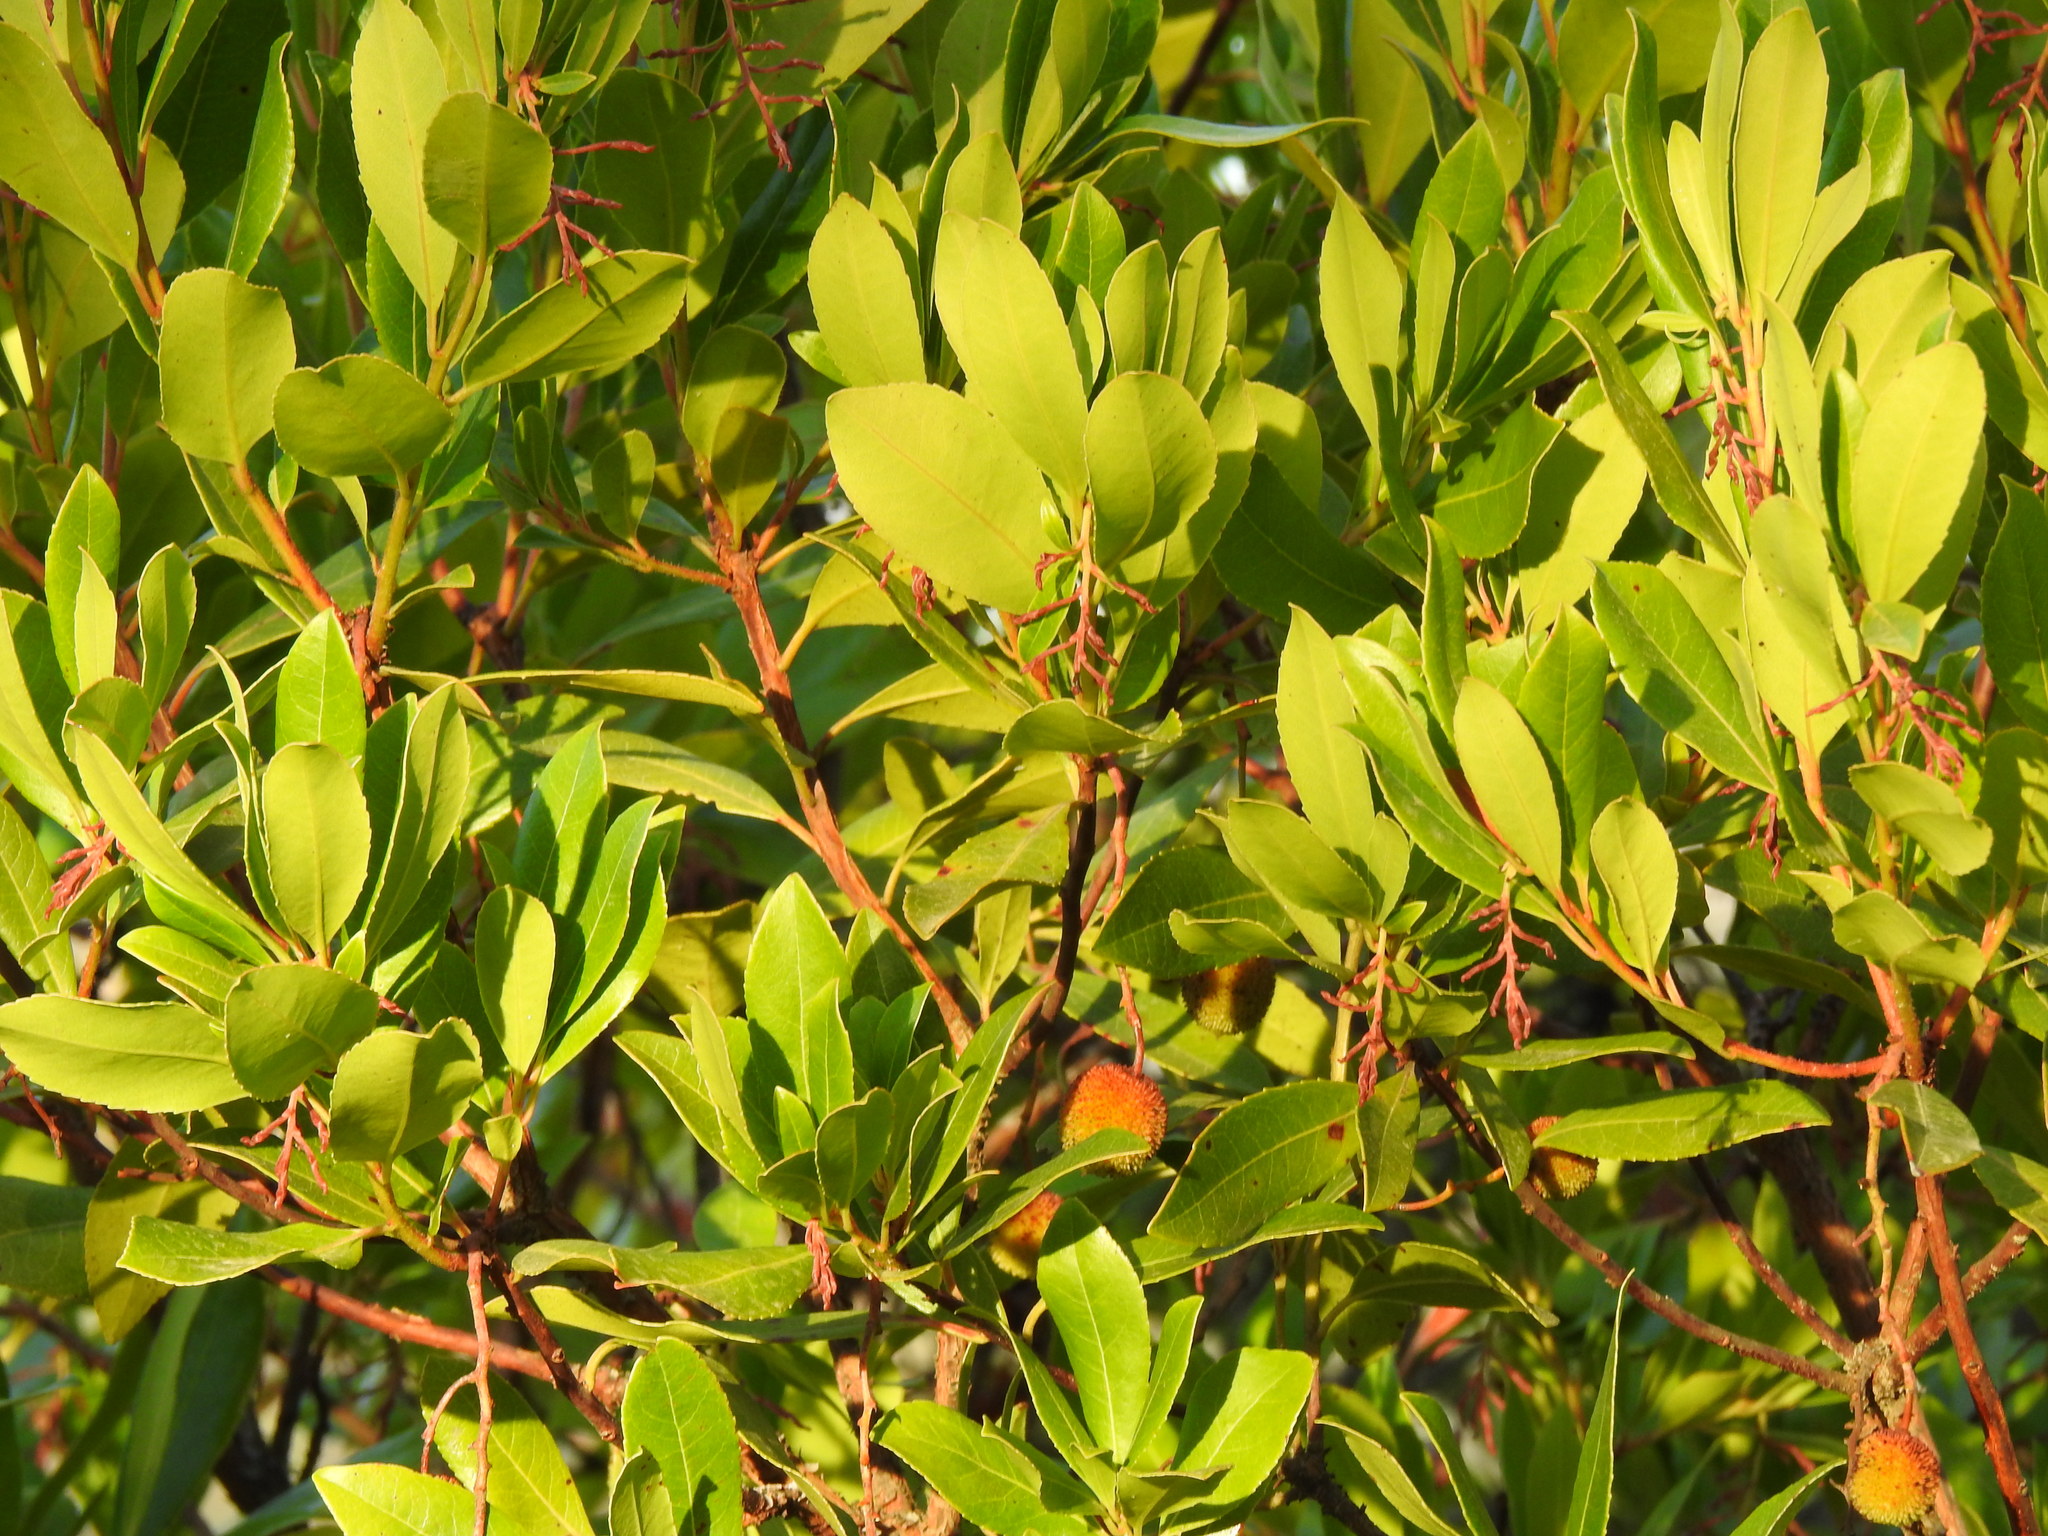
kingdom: Plantae
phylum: Tracheophyta
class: Magnoliopsida
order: Ericales
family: Ericaceae
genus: Arbutus
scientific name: Arbutus unedo
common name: Strawberry-tree
